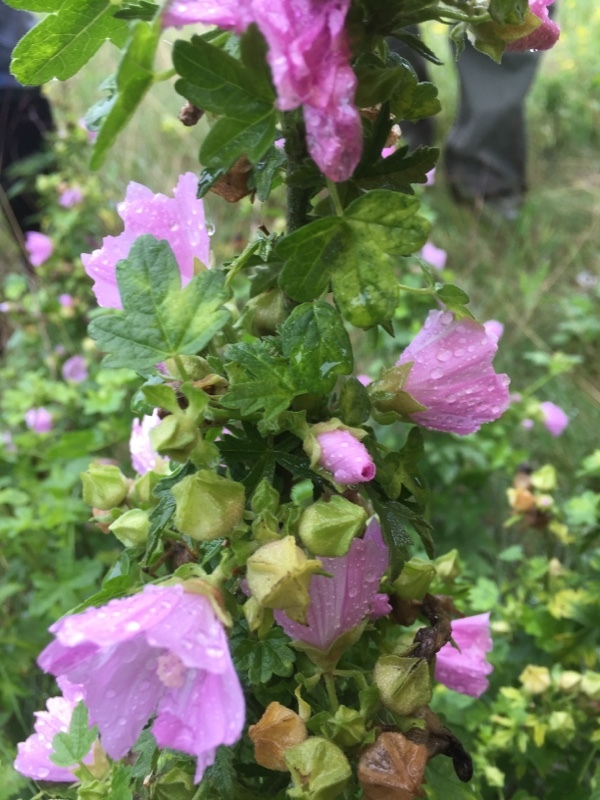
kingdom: Plantae
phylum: Tracheophyta
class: Magnoliopsida
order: Malvales
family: Malvaceae
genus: Malva
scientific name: Malva alcea
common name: Greater musk-mallow
